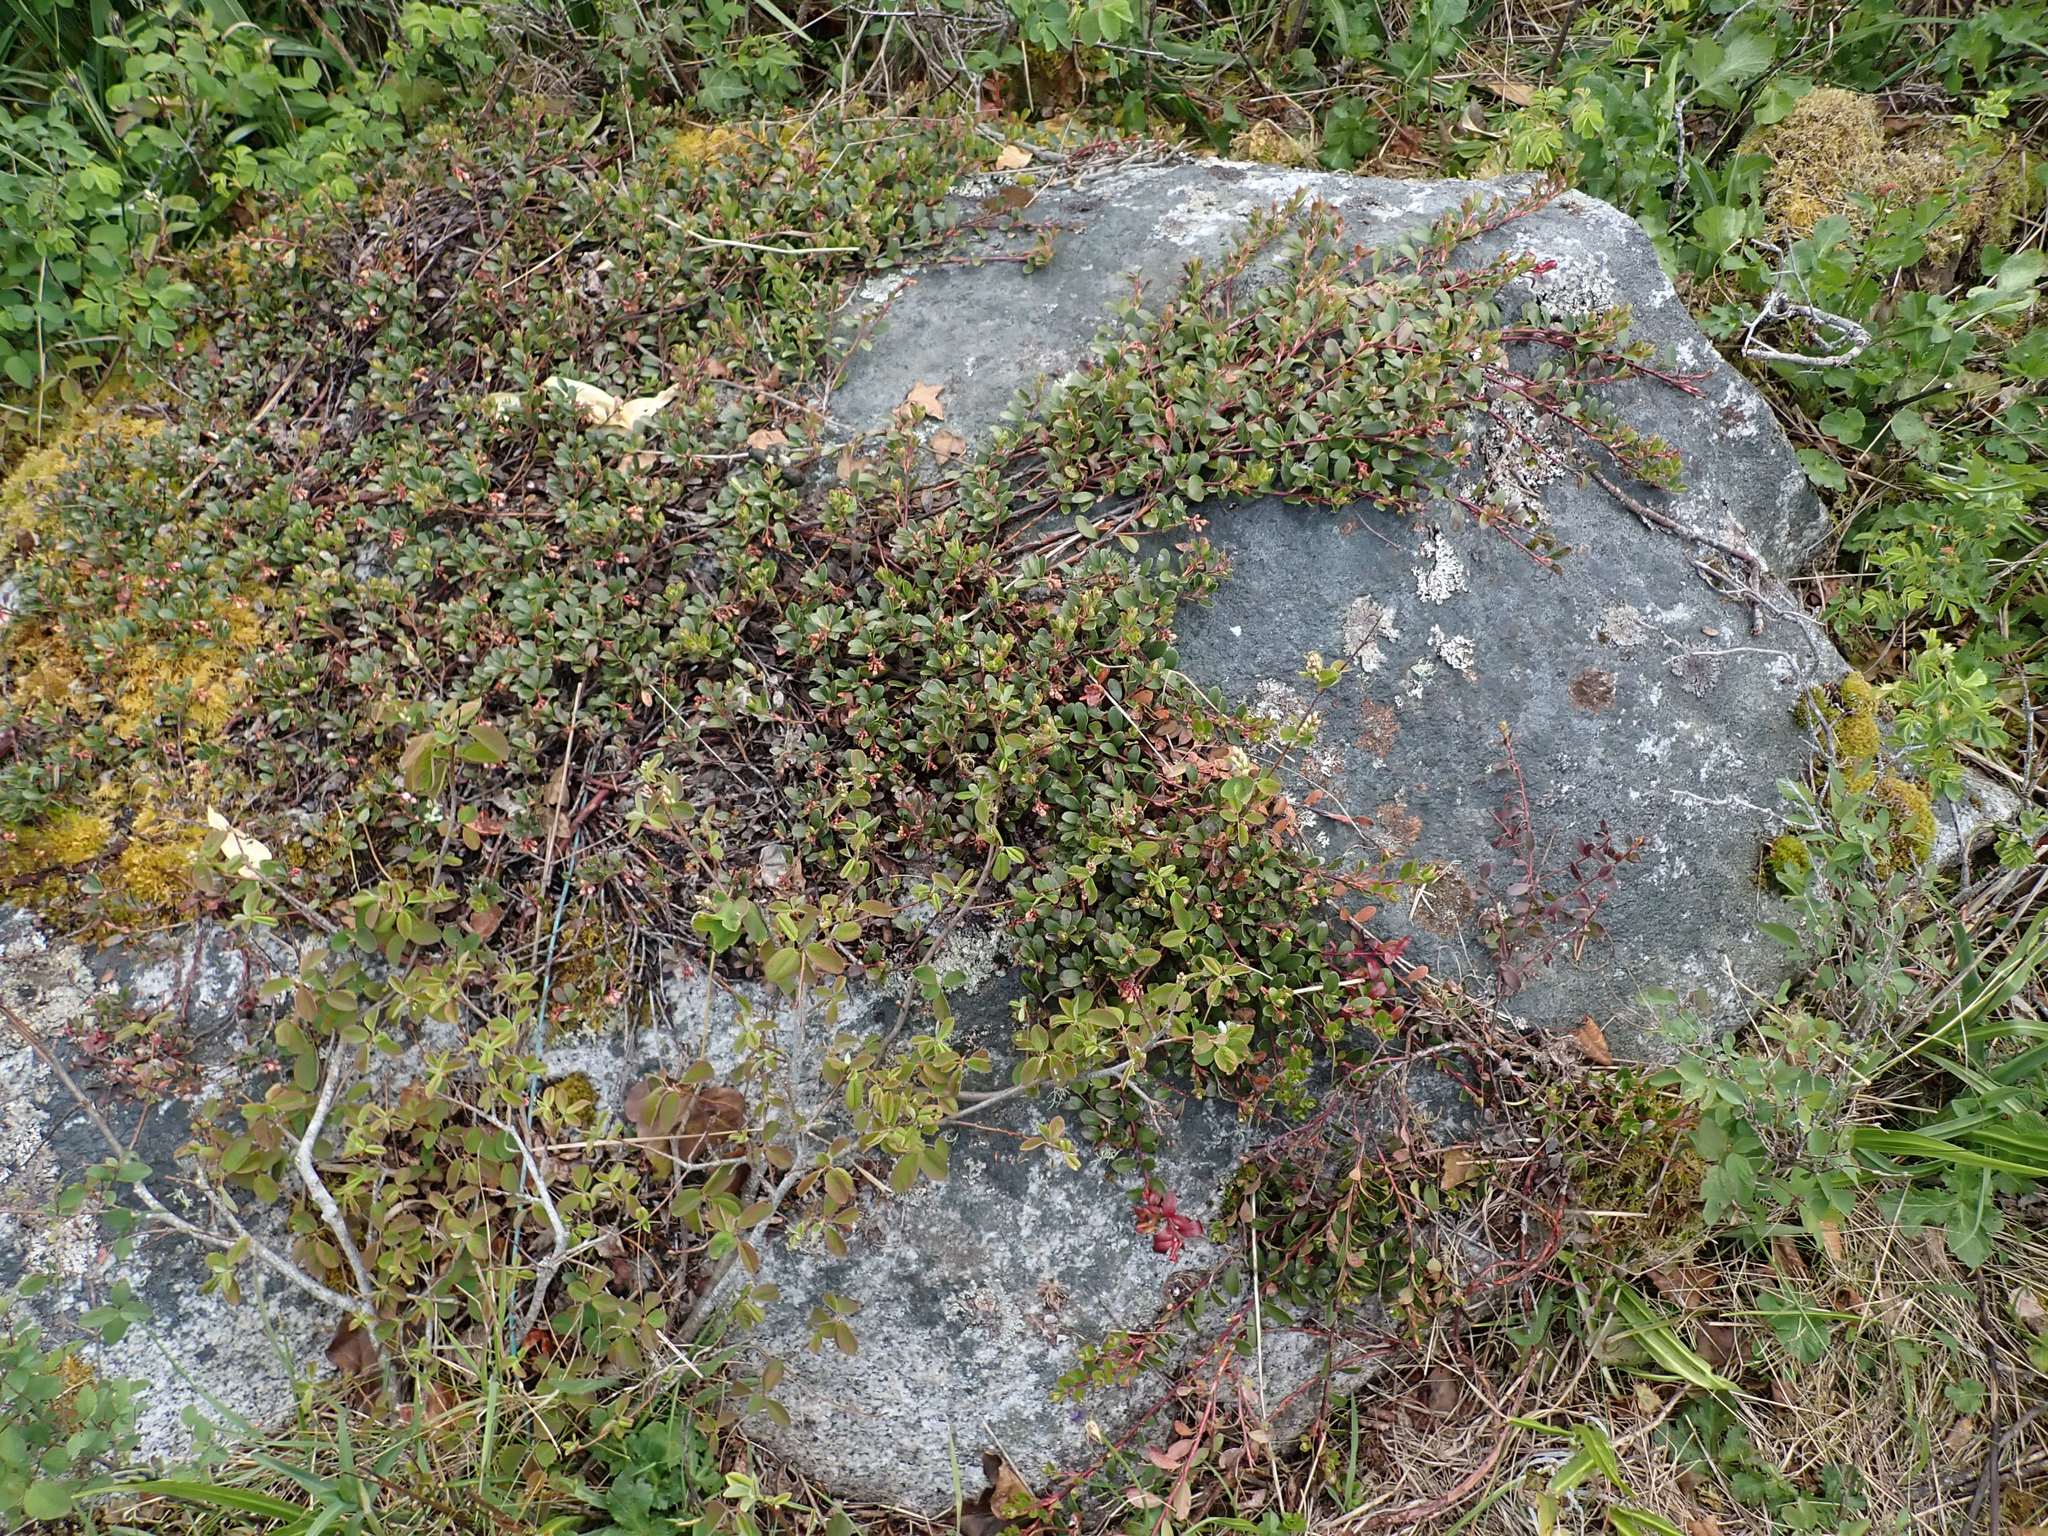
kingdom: Plantae
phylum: Tracheophyta
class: Magnoliopsida
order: Ericales
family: Ericaceae
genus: Arctostaphylos
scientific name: Arctostaphylos uva-ursi
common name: Bearberry
